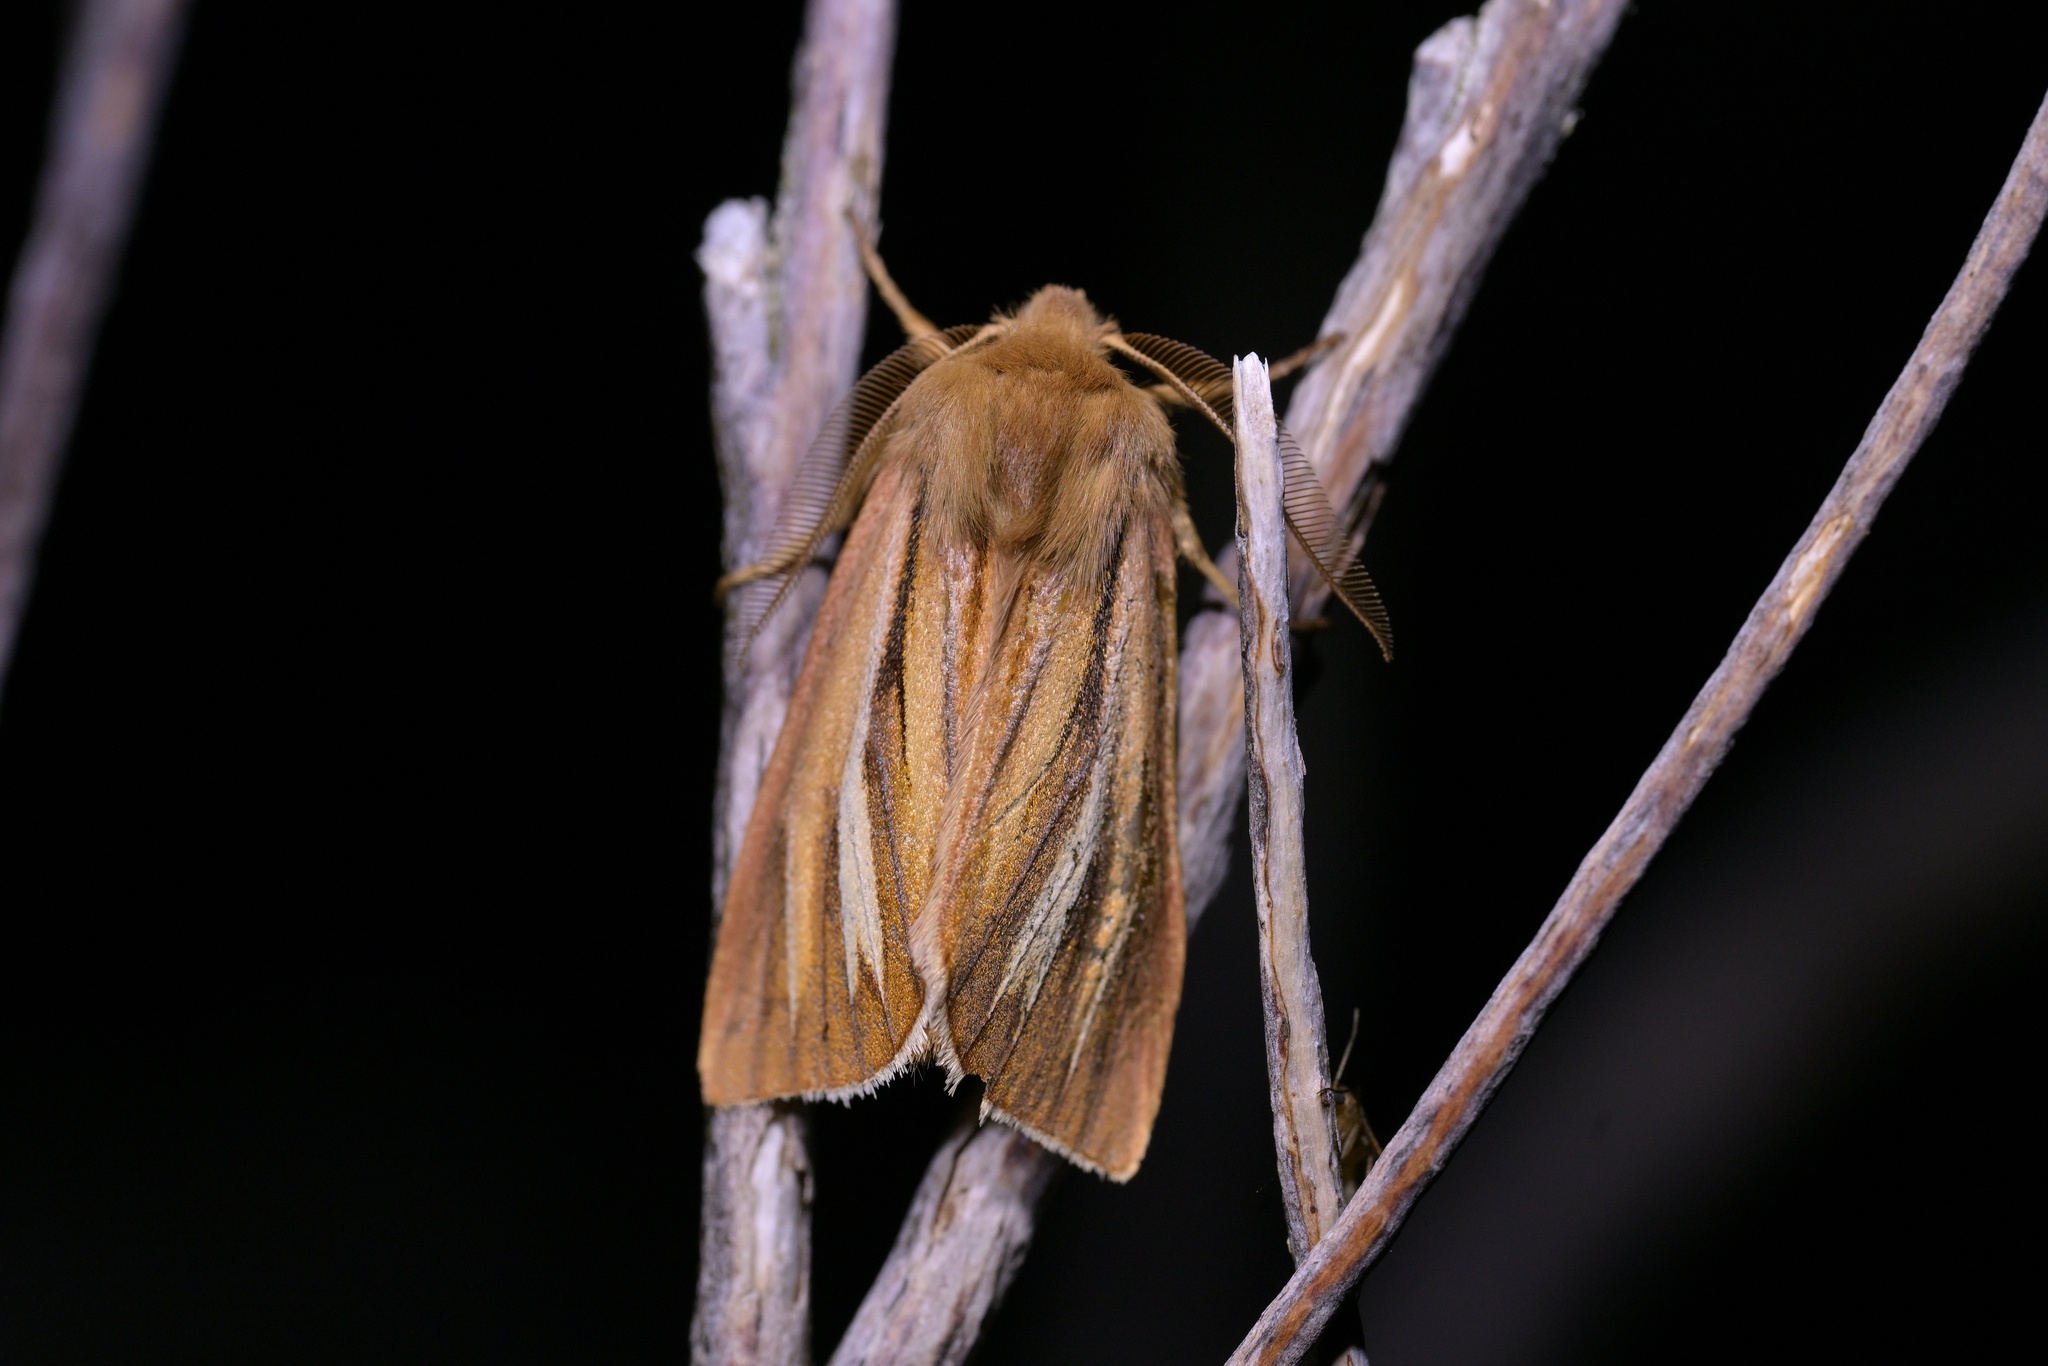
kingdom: Animalia
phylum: Arthropoda
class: Insecta
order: Lepidoptera
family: Noctuidae
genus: Ichneutica
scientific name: Ichneutica caraunias
